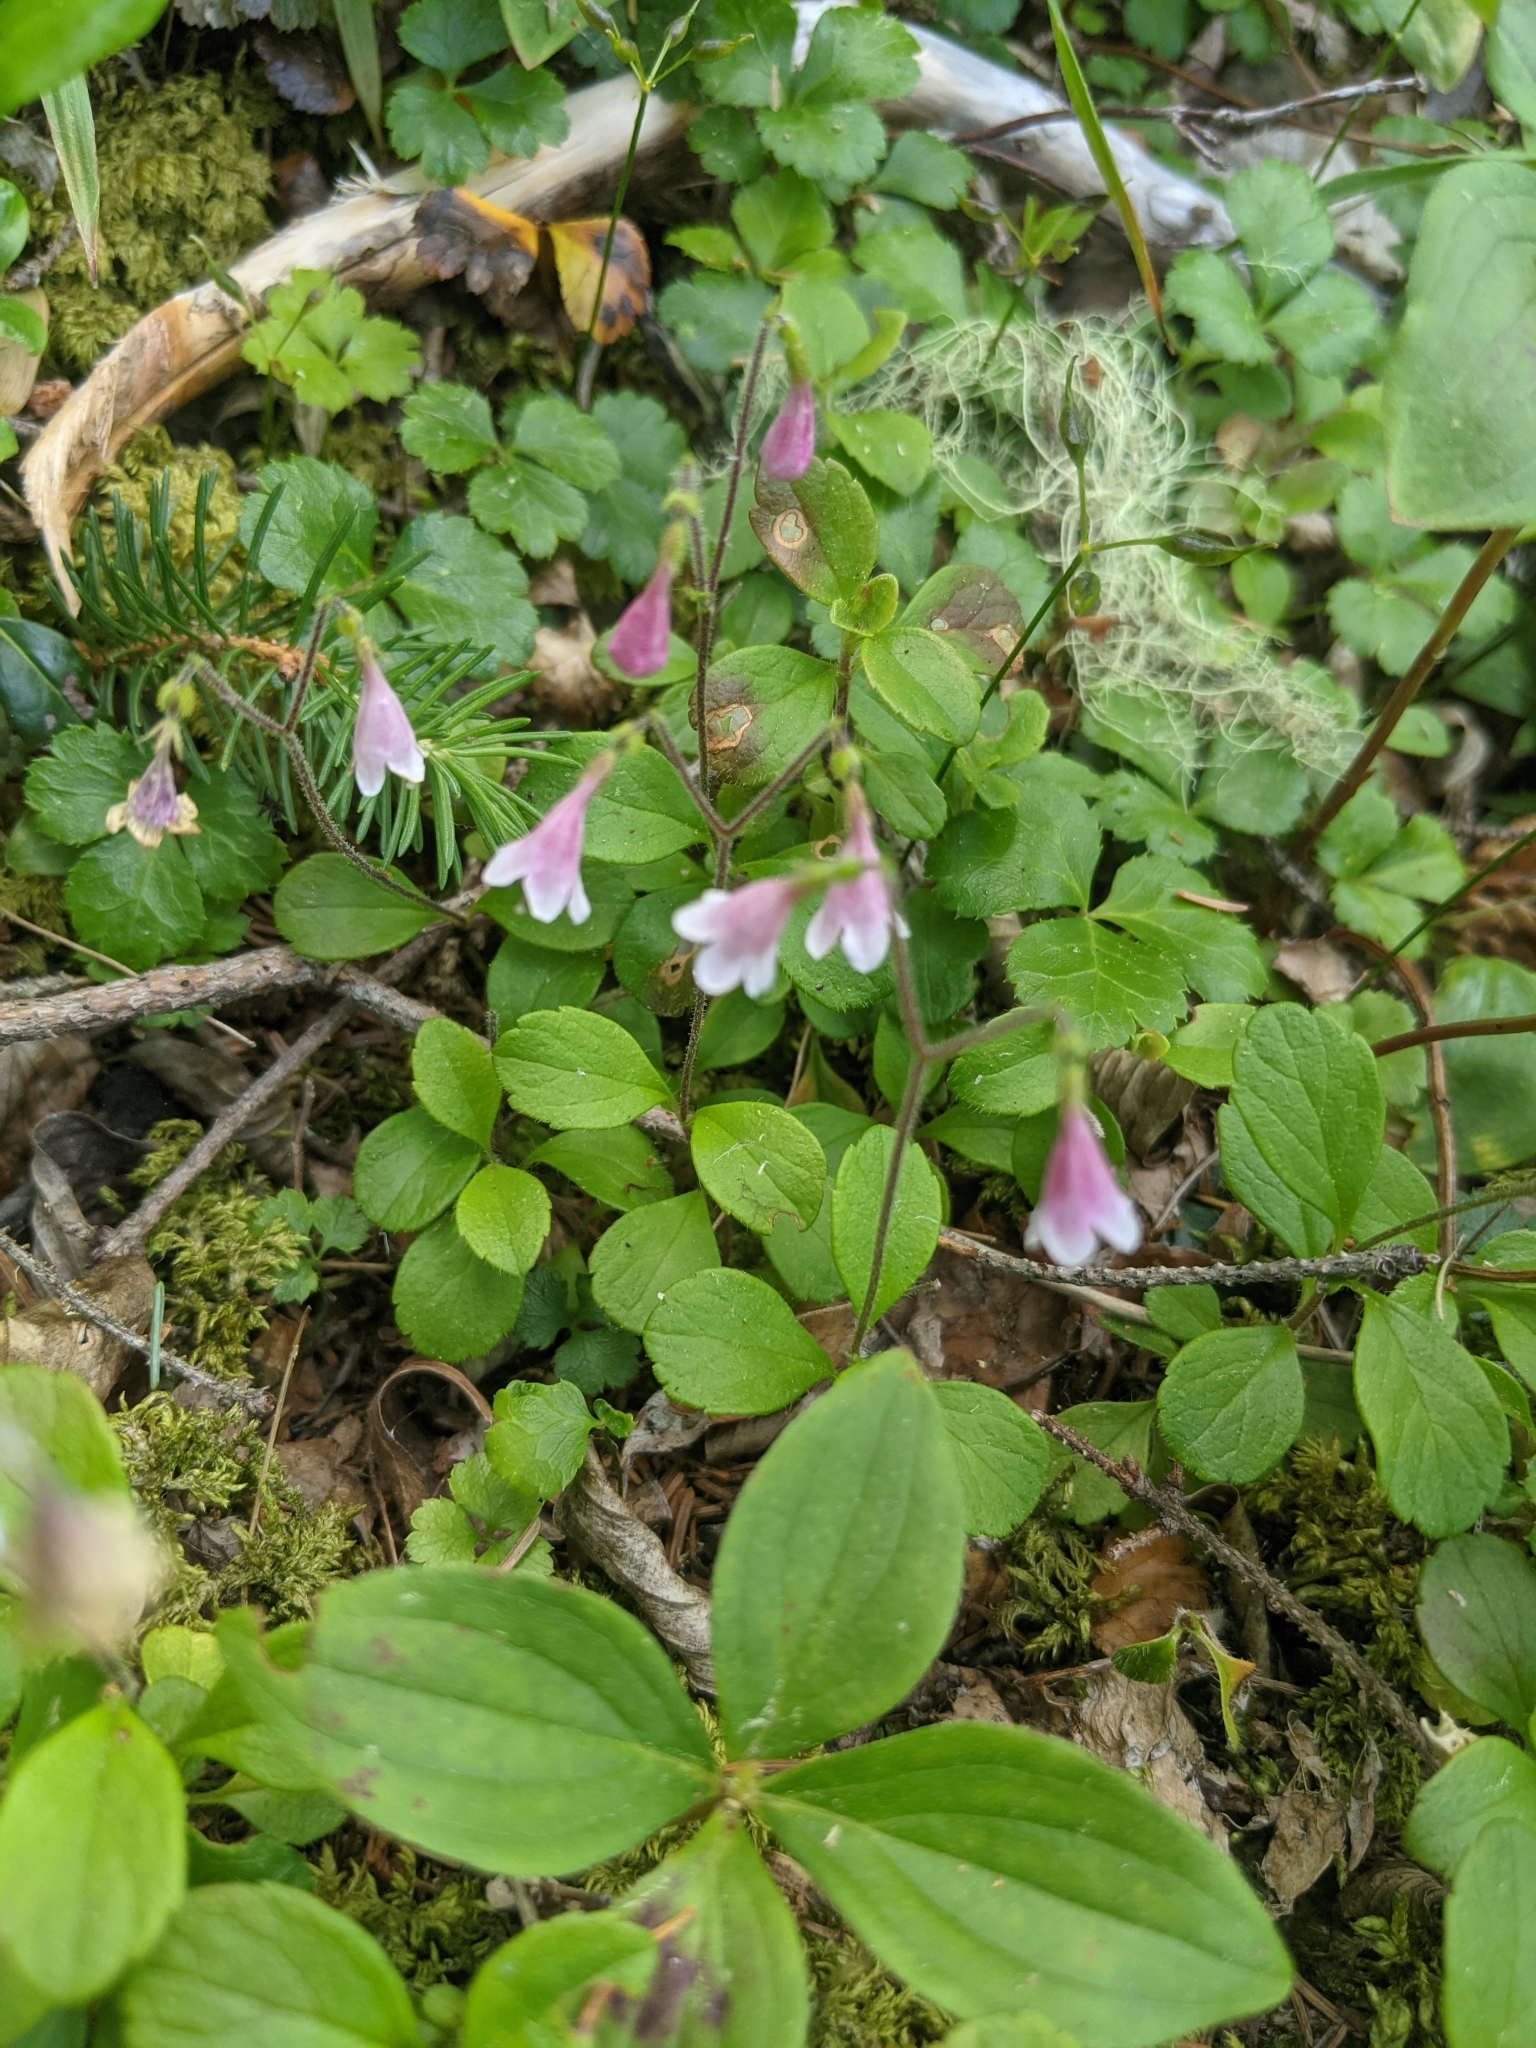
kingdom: Plantae
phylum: Tracheophyta
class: Magnoliopsida
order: Dipsacales
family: Caprifoliaceae
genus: Linnaea
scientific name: Linnaea borealis
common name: Twinflower
